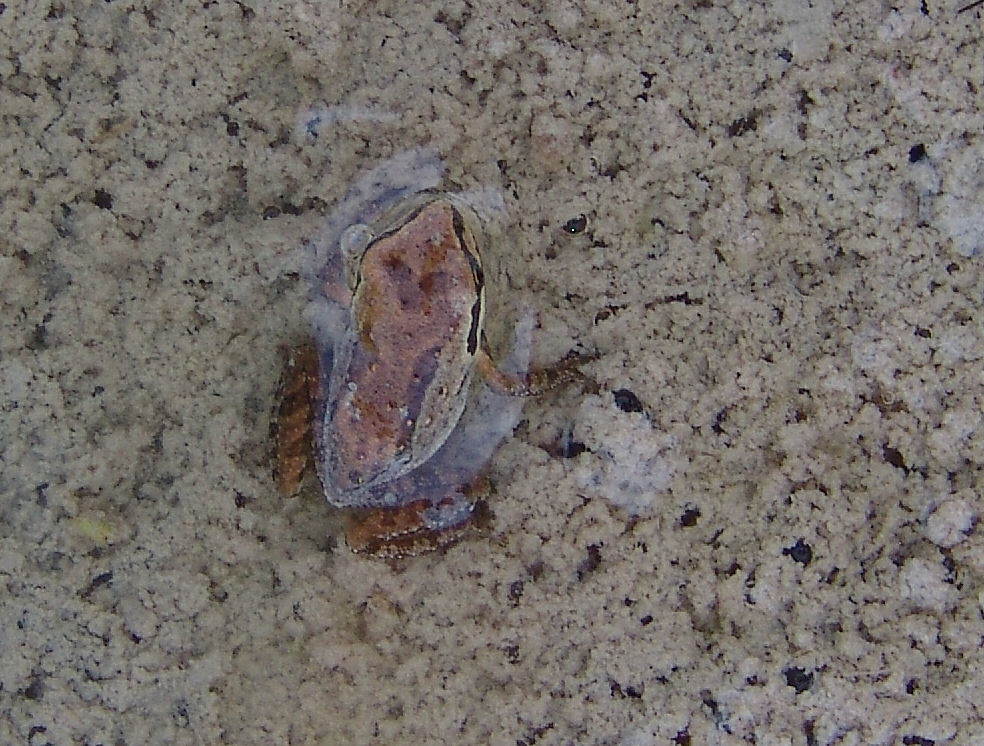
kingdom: Animalia
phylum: Chordata
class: Amphibia
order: Anura
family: Hylidae
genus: Pseudacris
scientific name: Pseudacris regilla
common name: Pacific chorus frog
